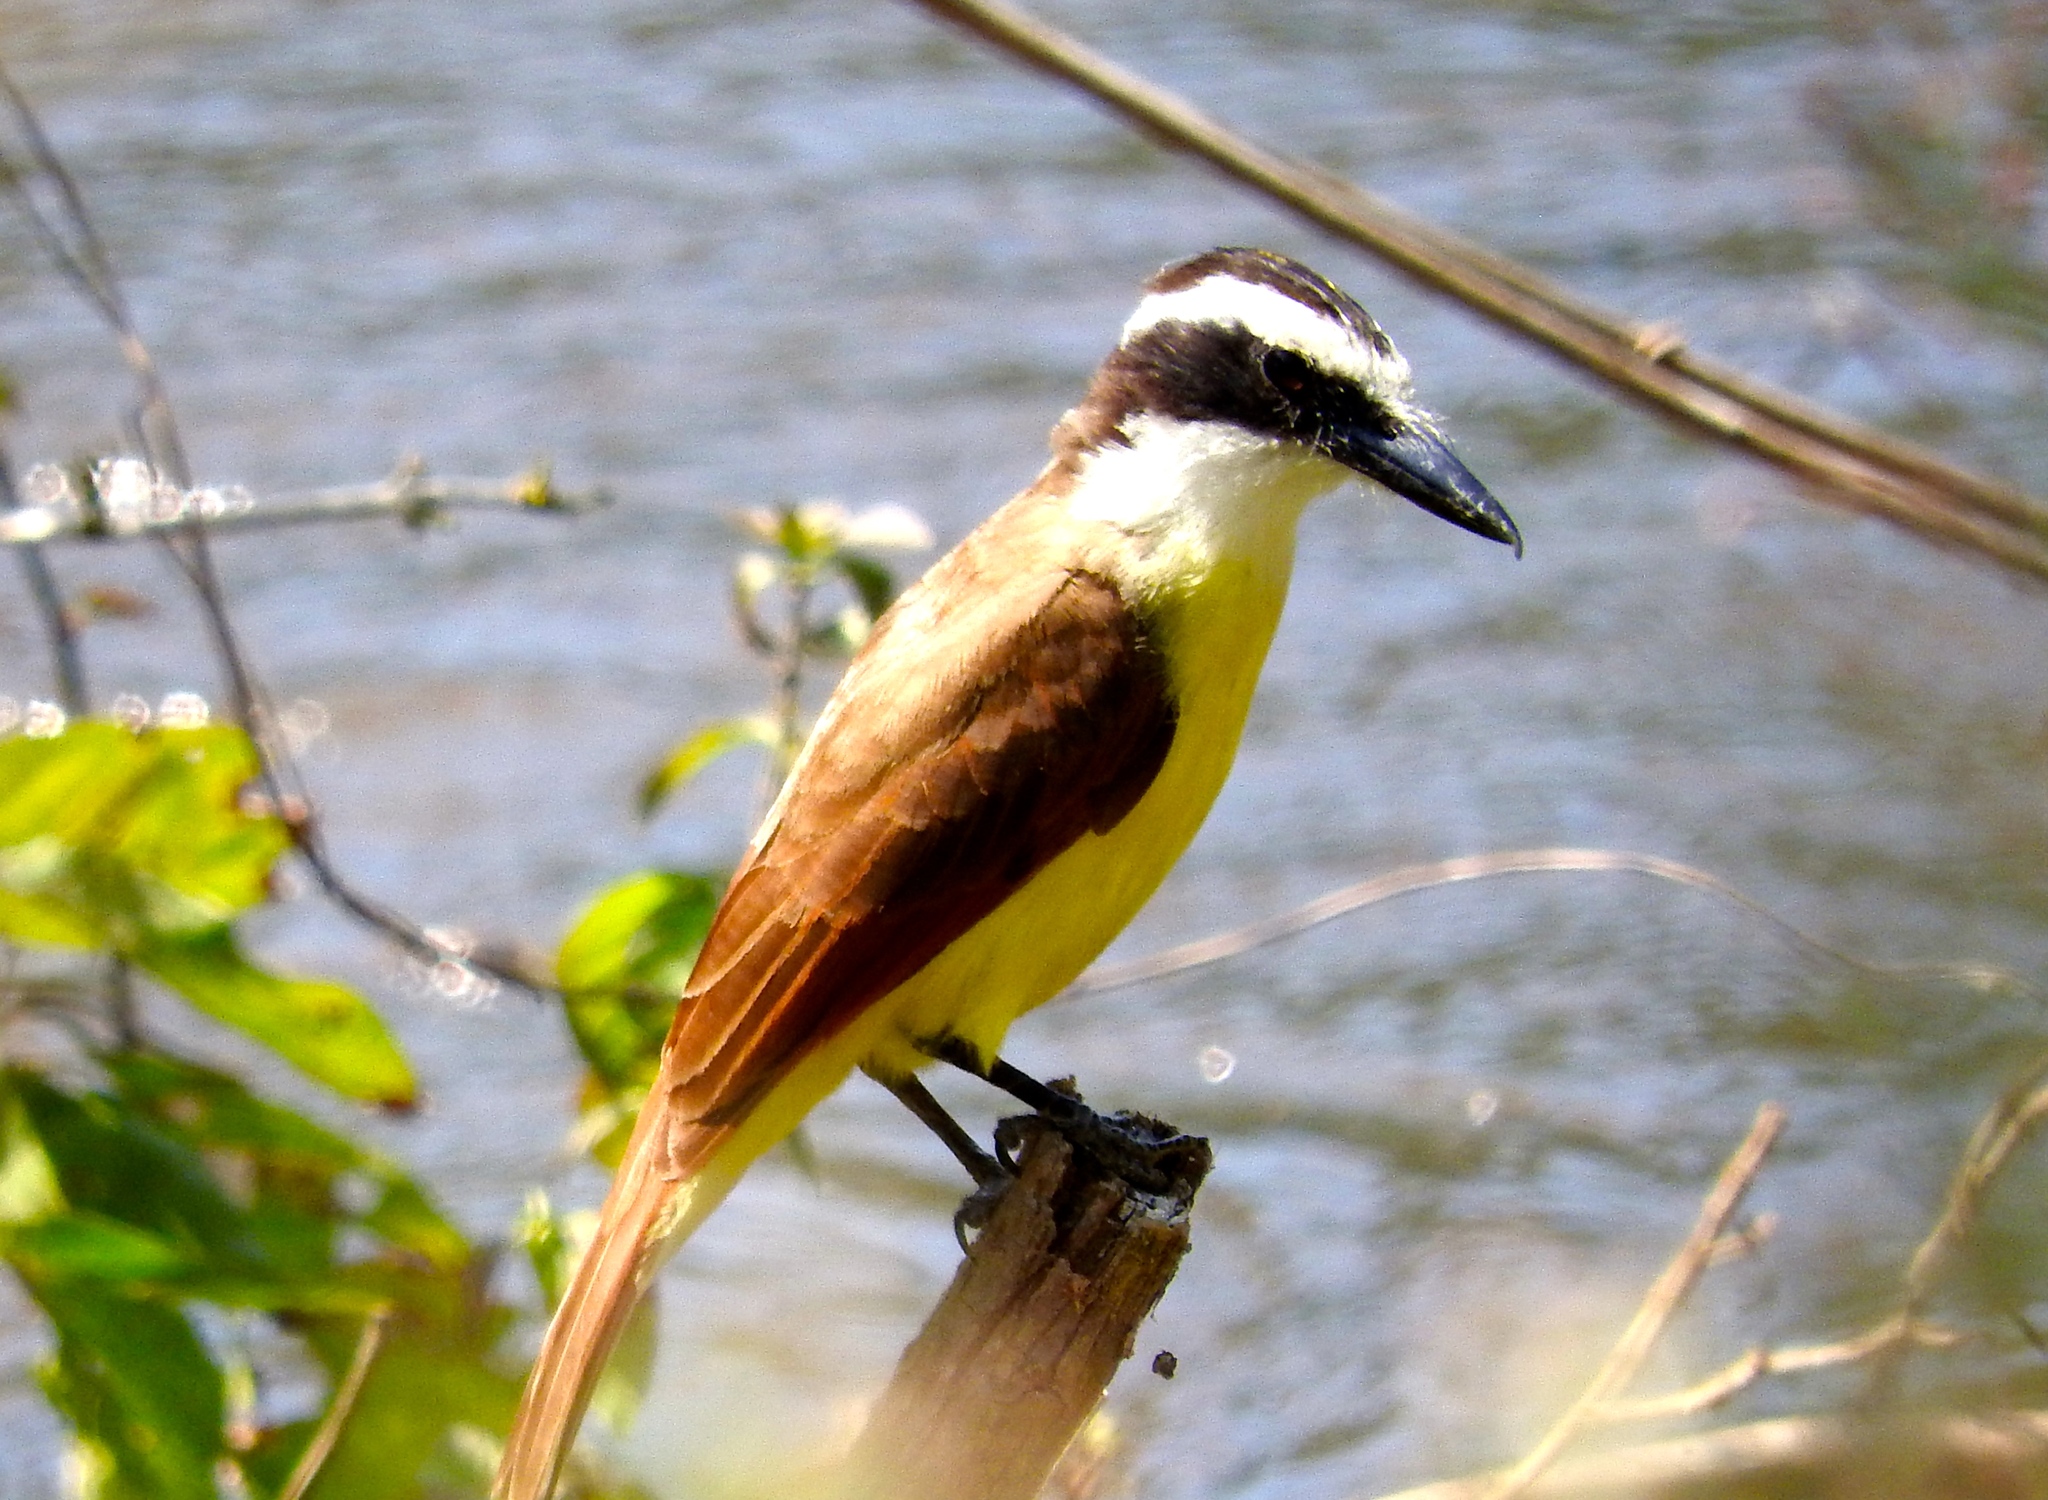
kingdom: Animalia
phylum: Chordata
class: Aves
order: Passeriformes
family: Tyrannidae
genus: Pitangus
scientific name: Pitangus sulphuratus
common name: Great kiskadee
